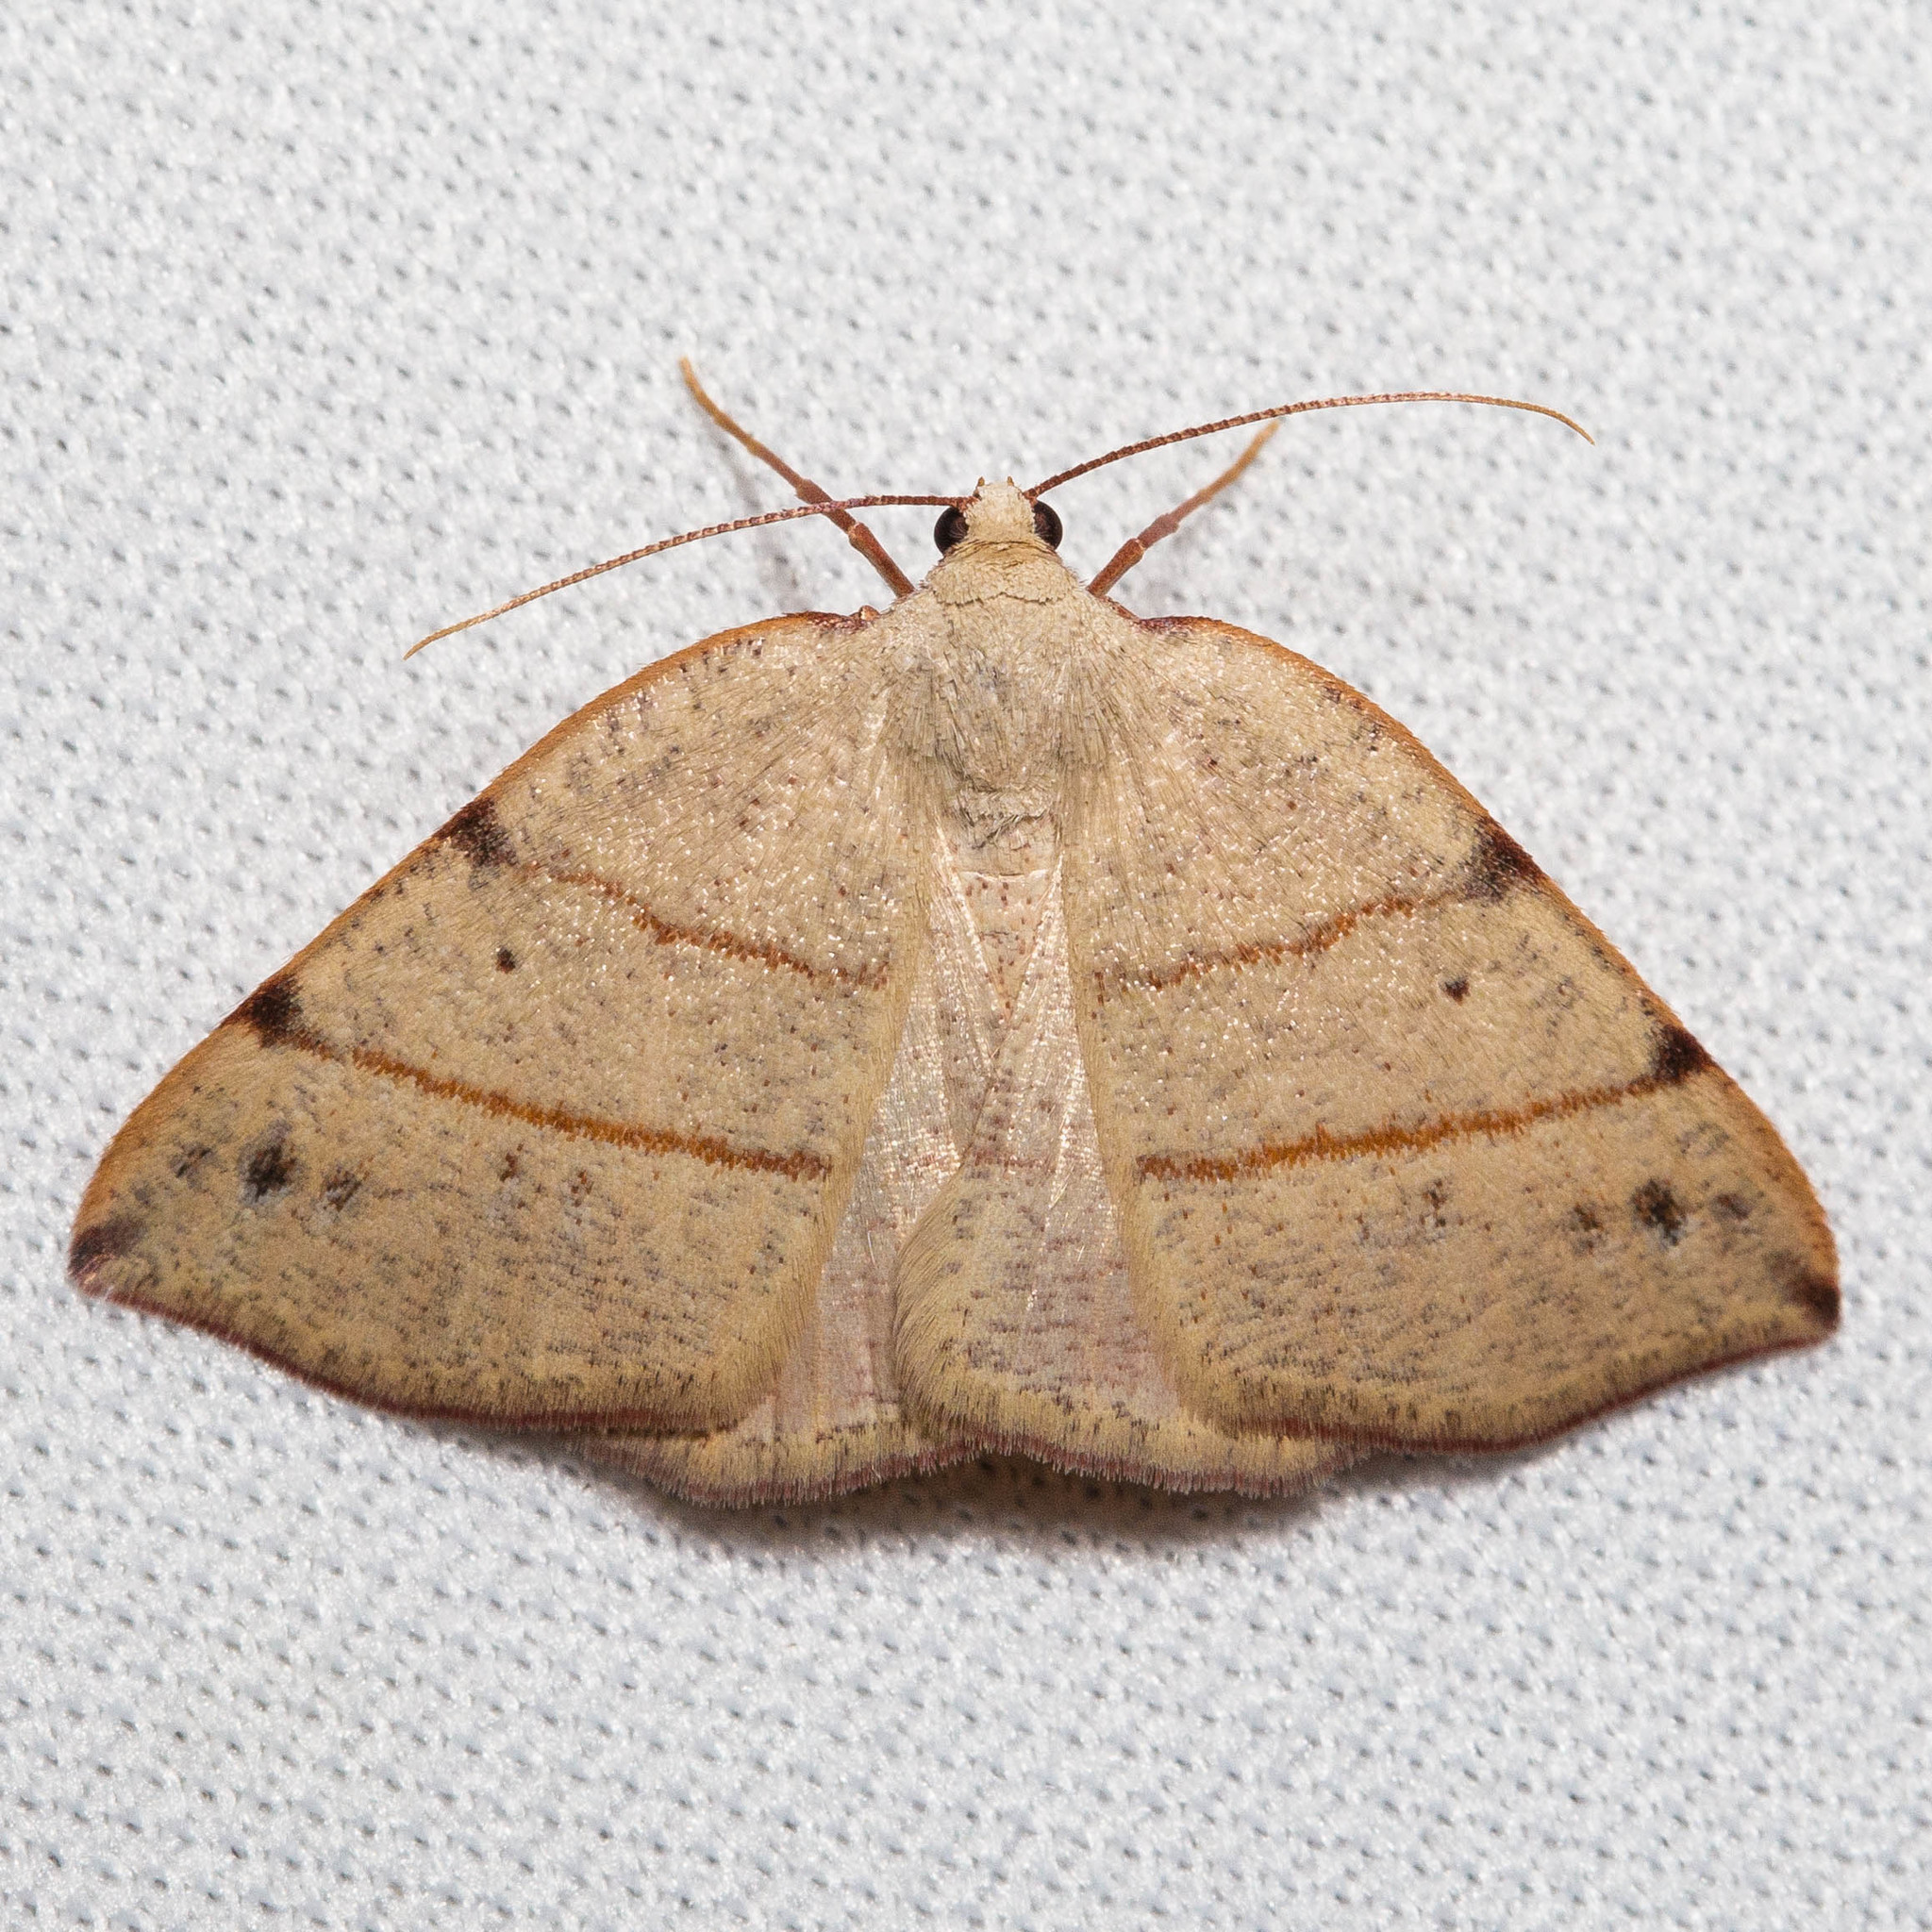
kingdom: Animalia
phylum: Arthropoda
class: Insecta
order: Lepidoptera
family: Geometridae
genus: Drepanulatrix
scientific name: Drepanulatrix bifilata
